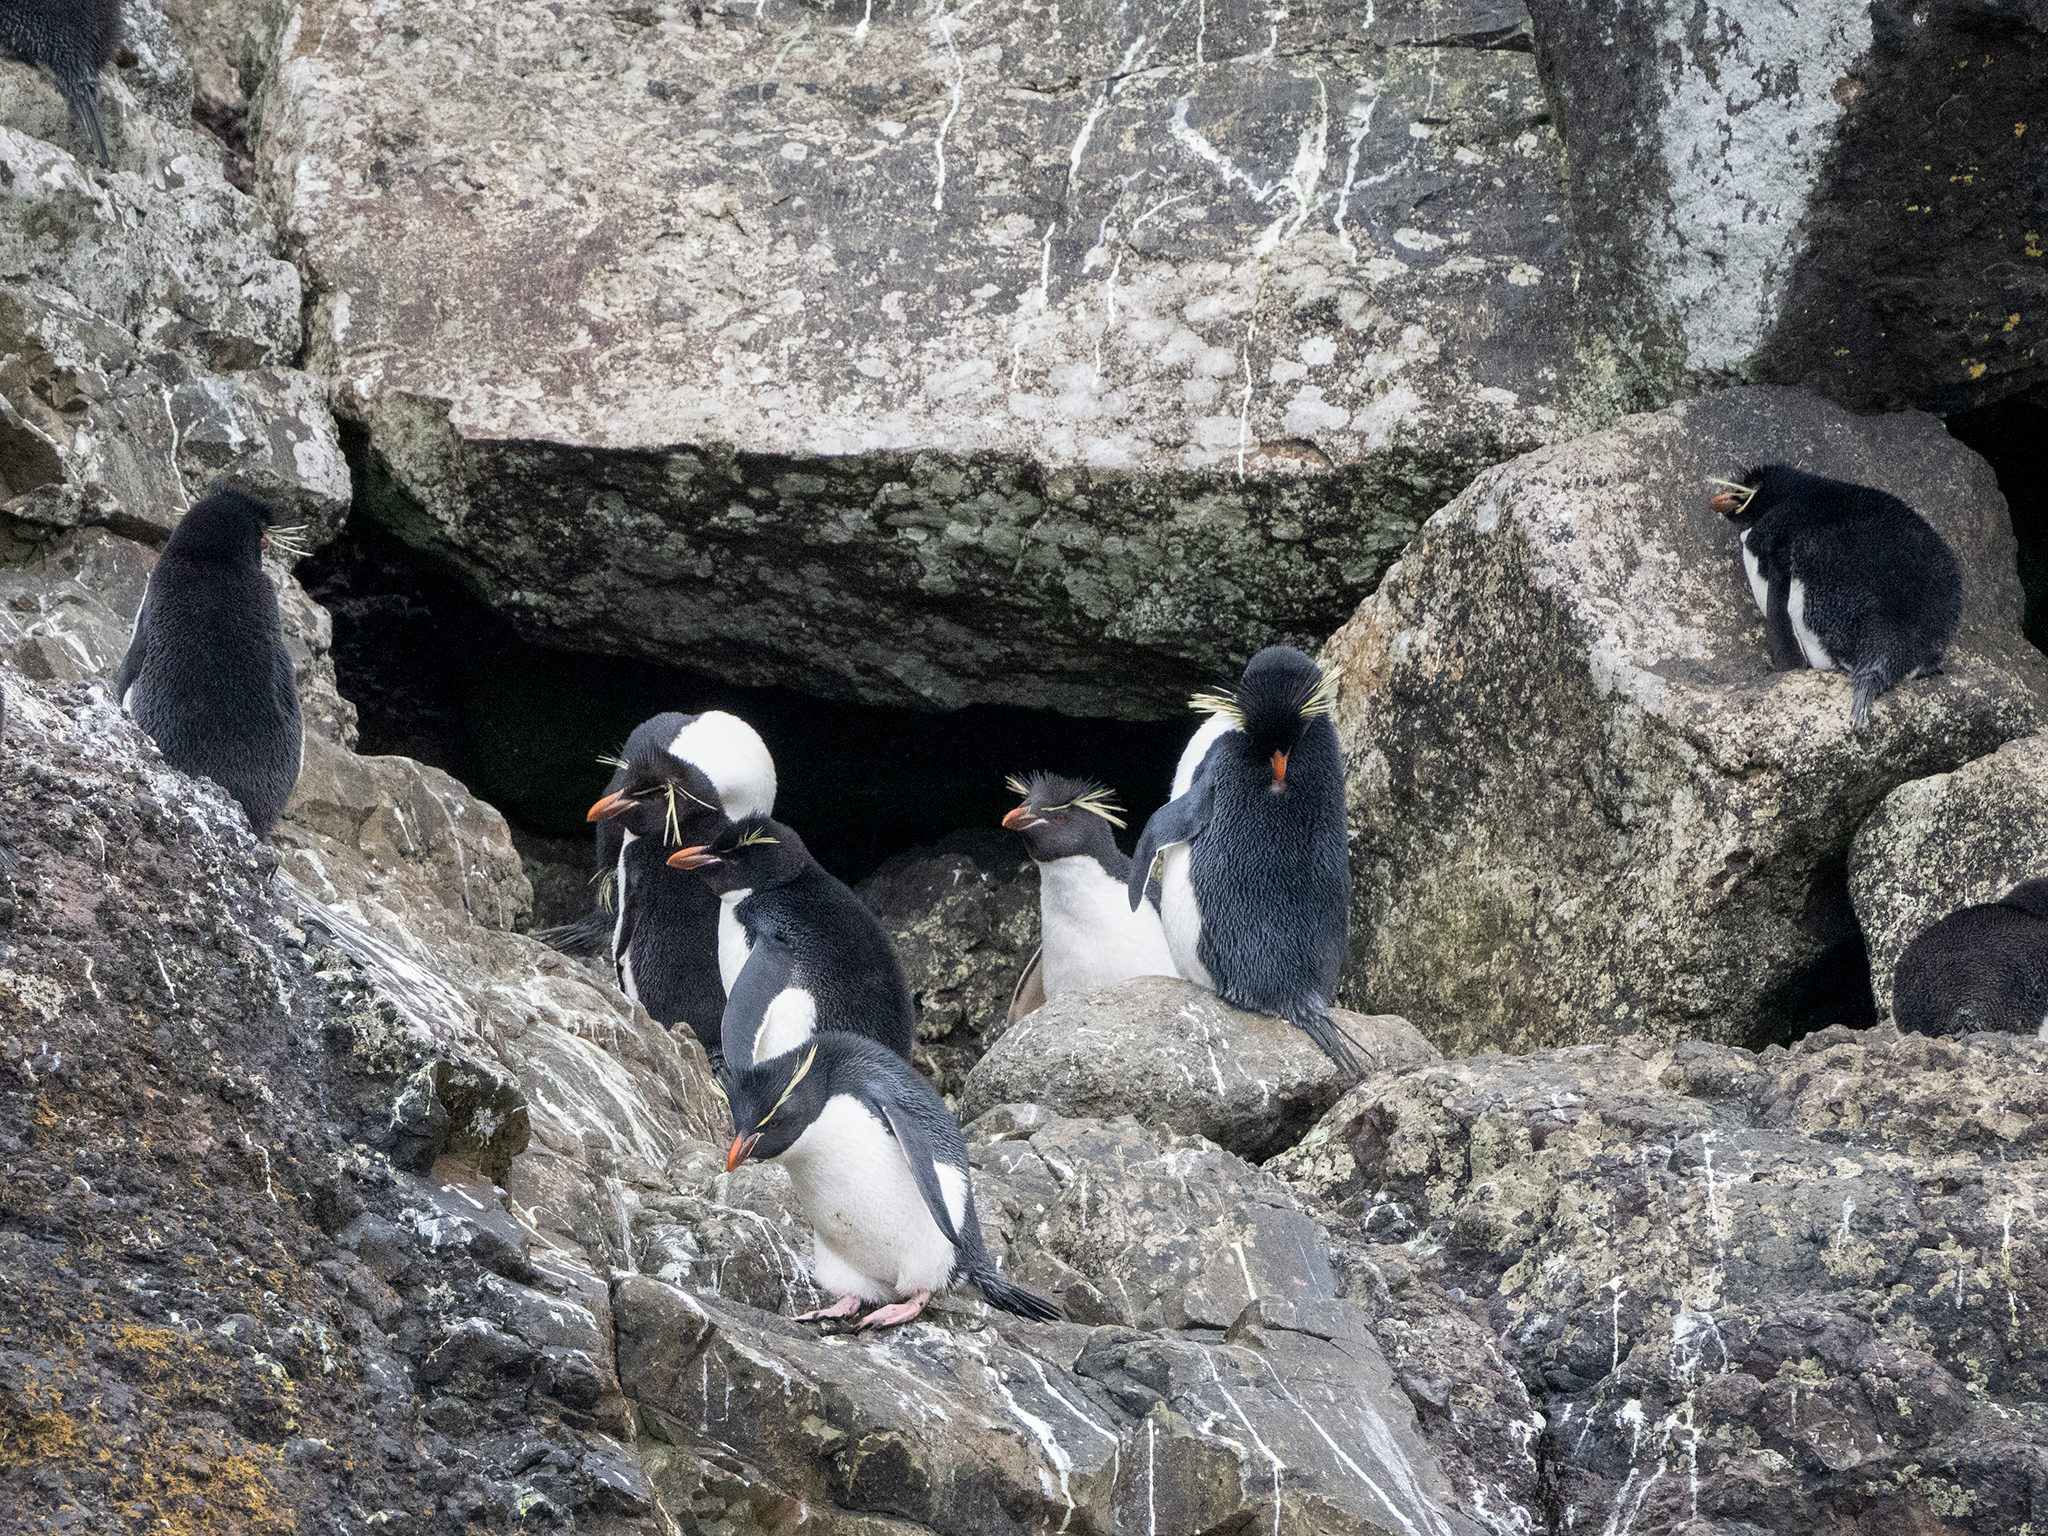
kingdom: Animalia
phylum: Chordata
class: Aves
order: Sphenisciformes
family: Spheniscidae
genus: Eudyptes
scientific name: Eudyptes chrysocome
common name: Southern rockhopper penguin
